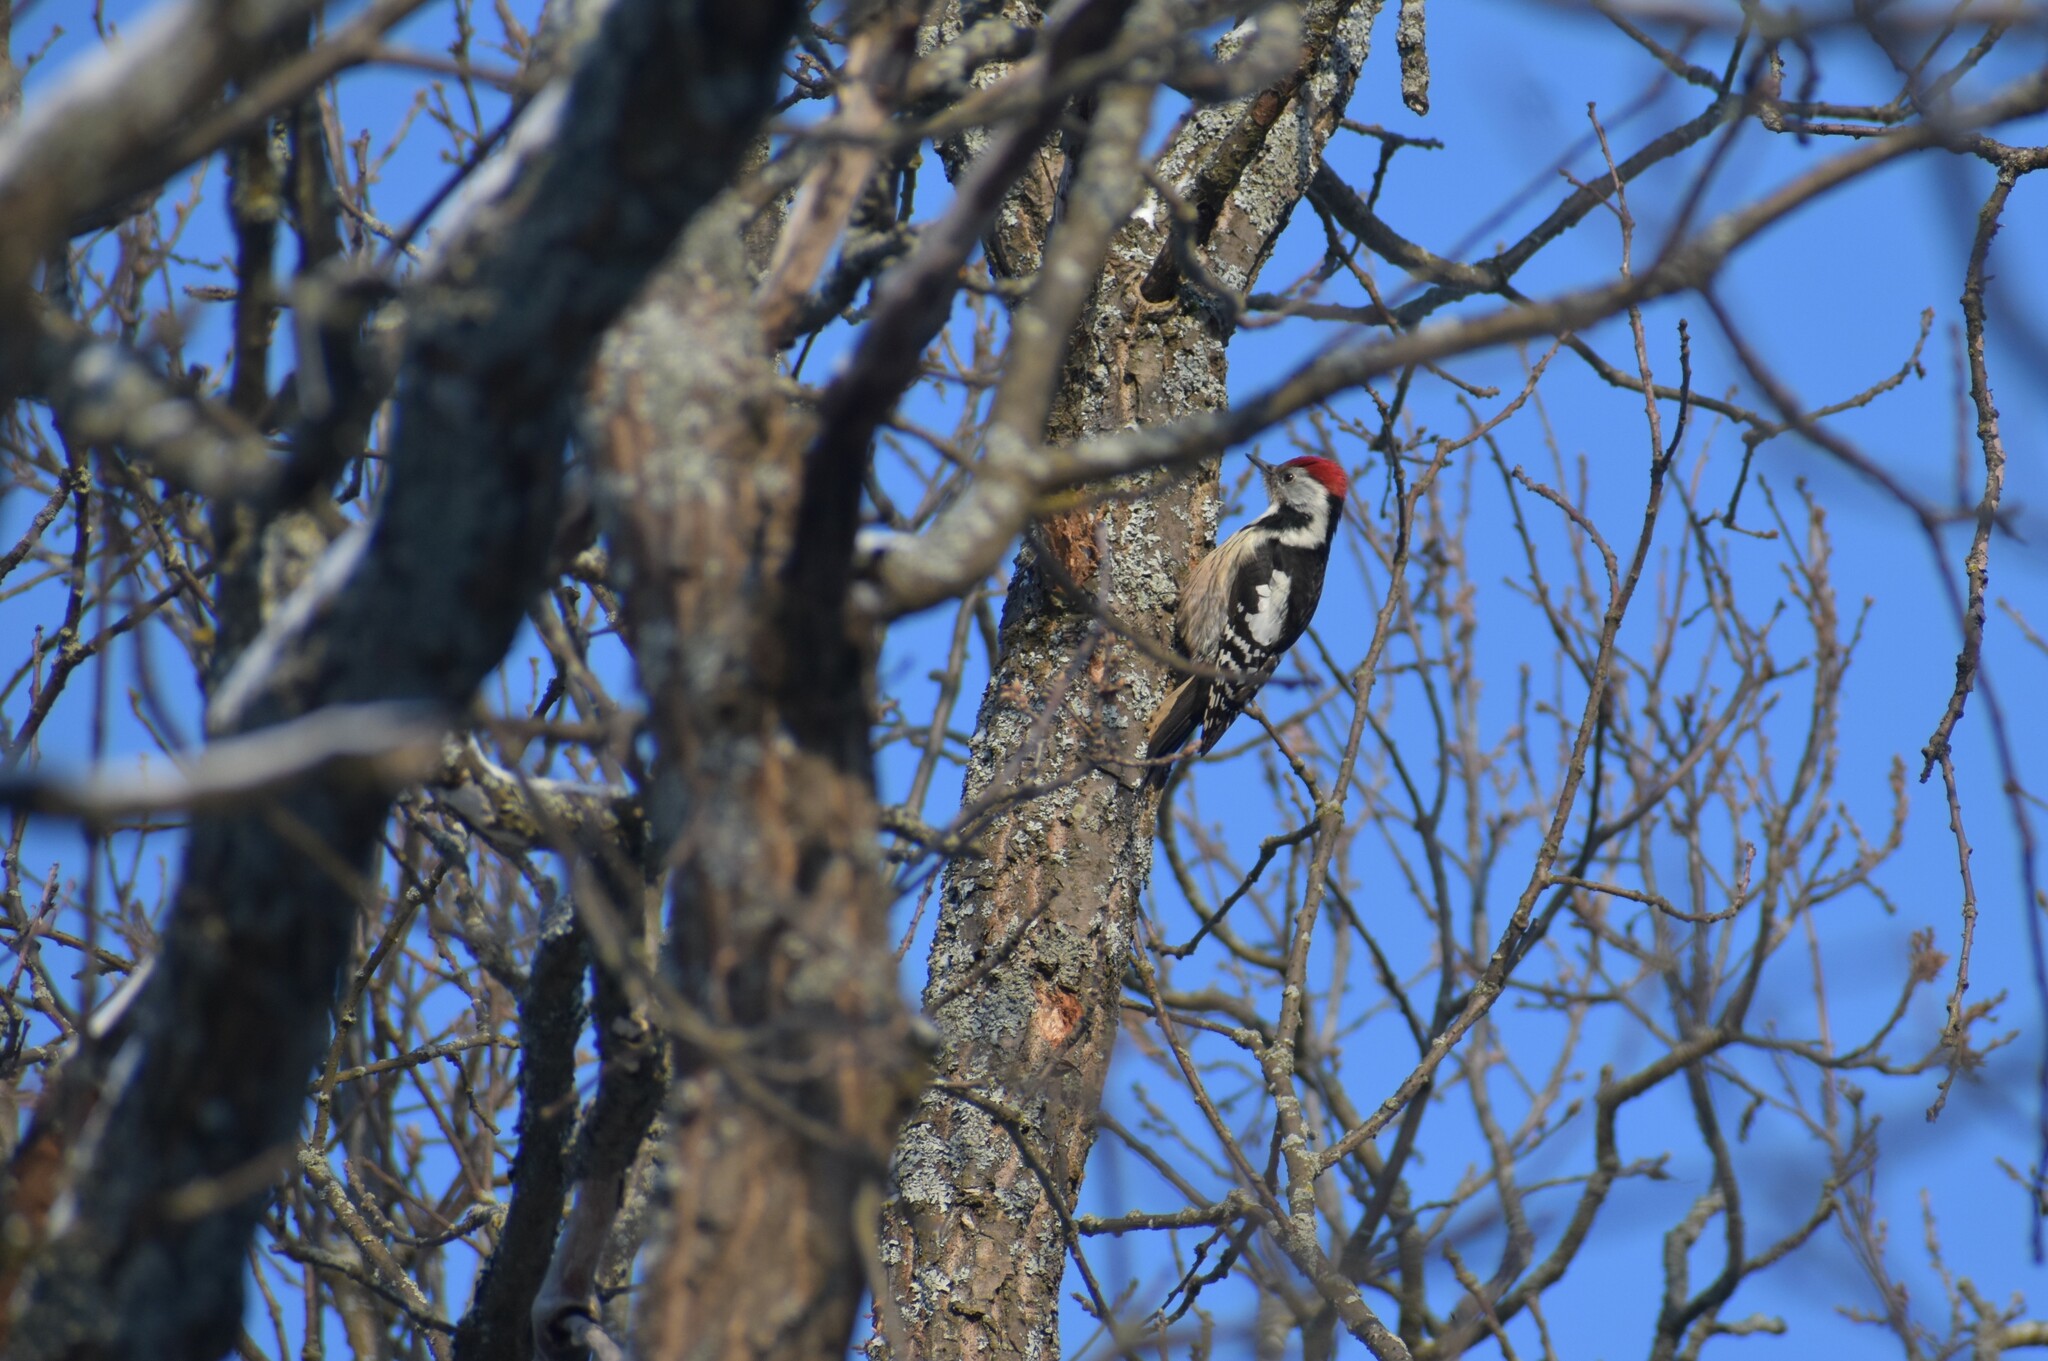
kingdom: Animalia
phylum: Chordata
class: Aves
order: Piciformes
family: Picidae
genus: Dendrocoptes
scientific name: Dendrocoptes medius
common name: Middle spotted woodpecker
